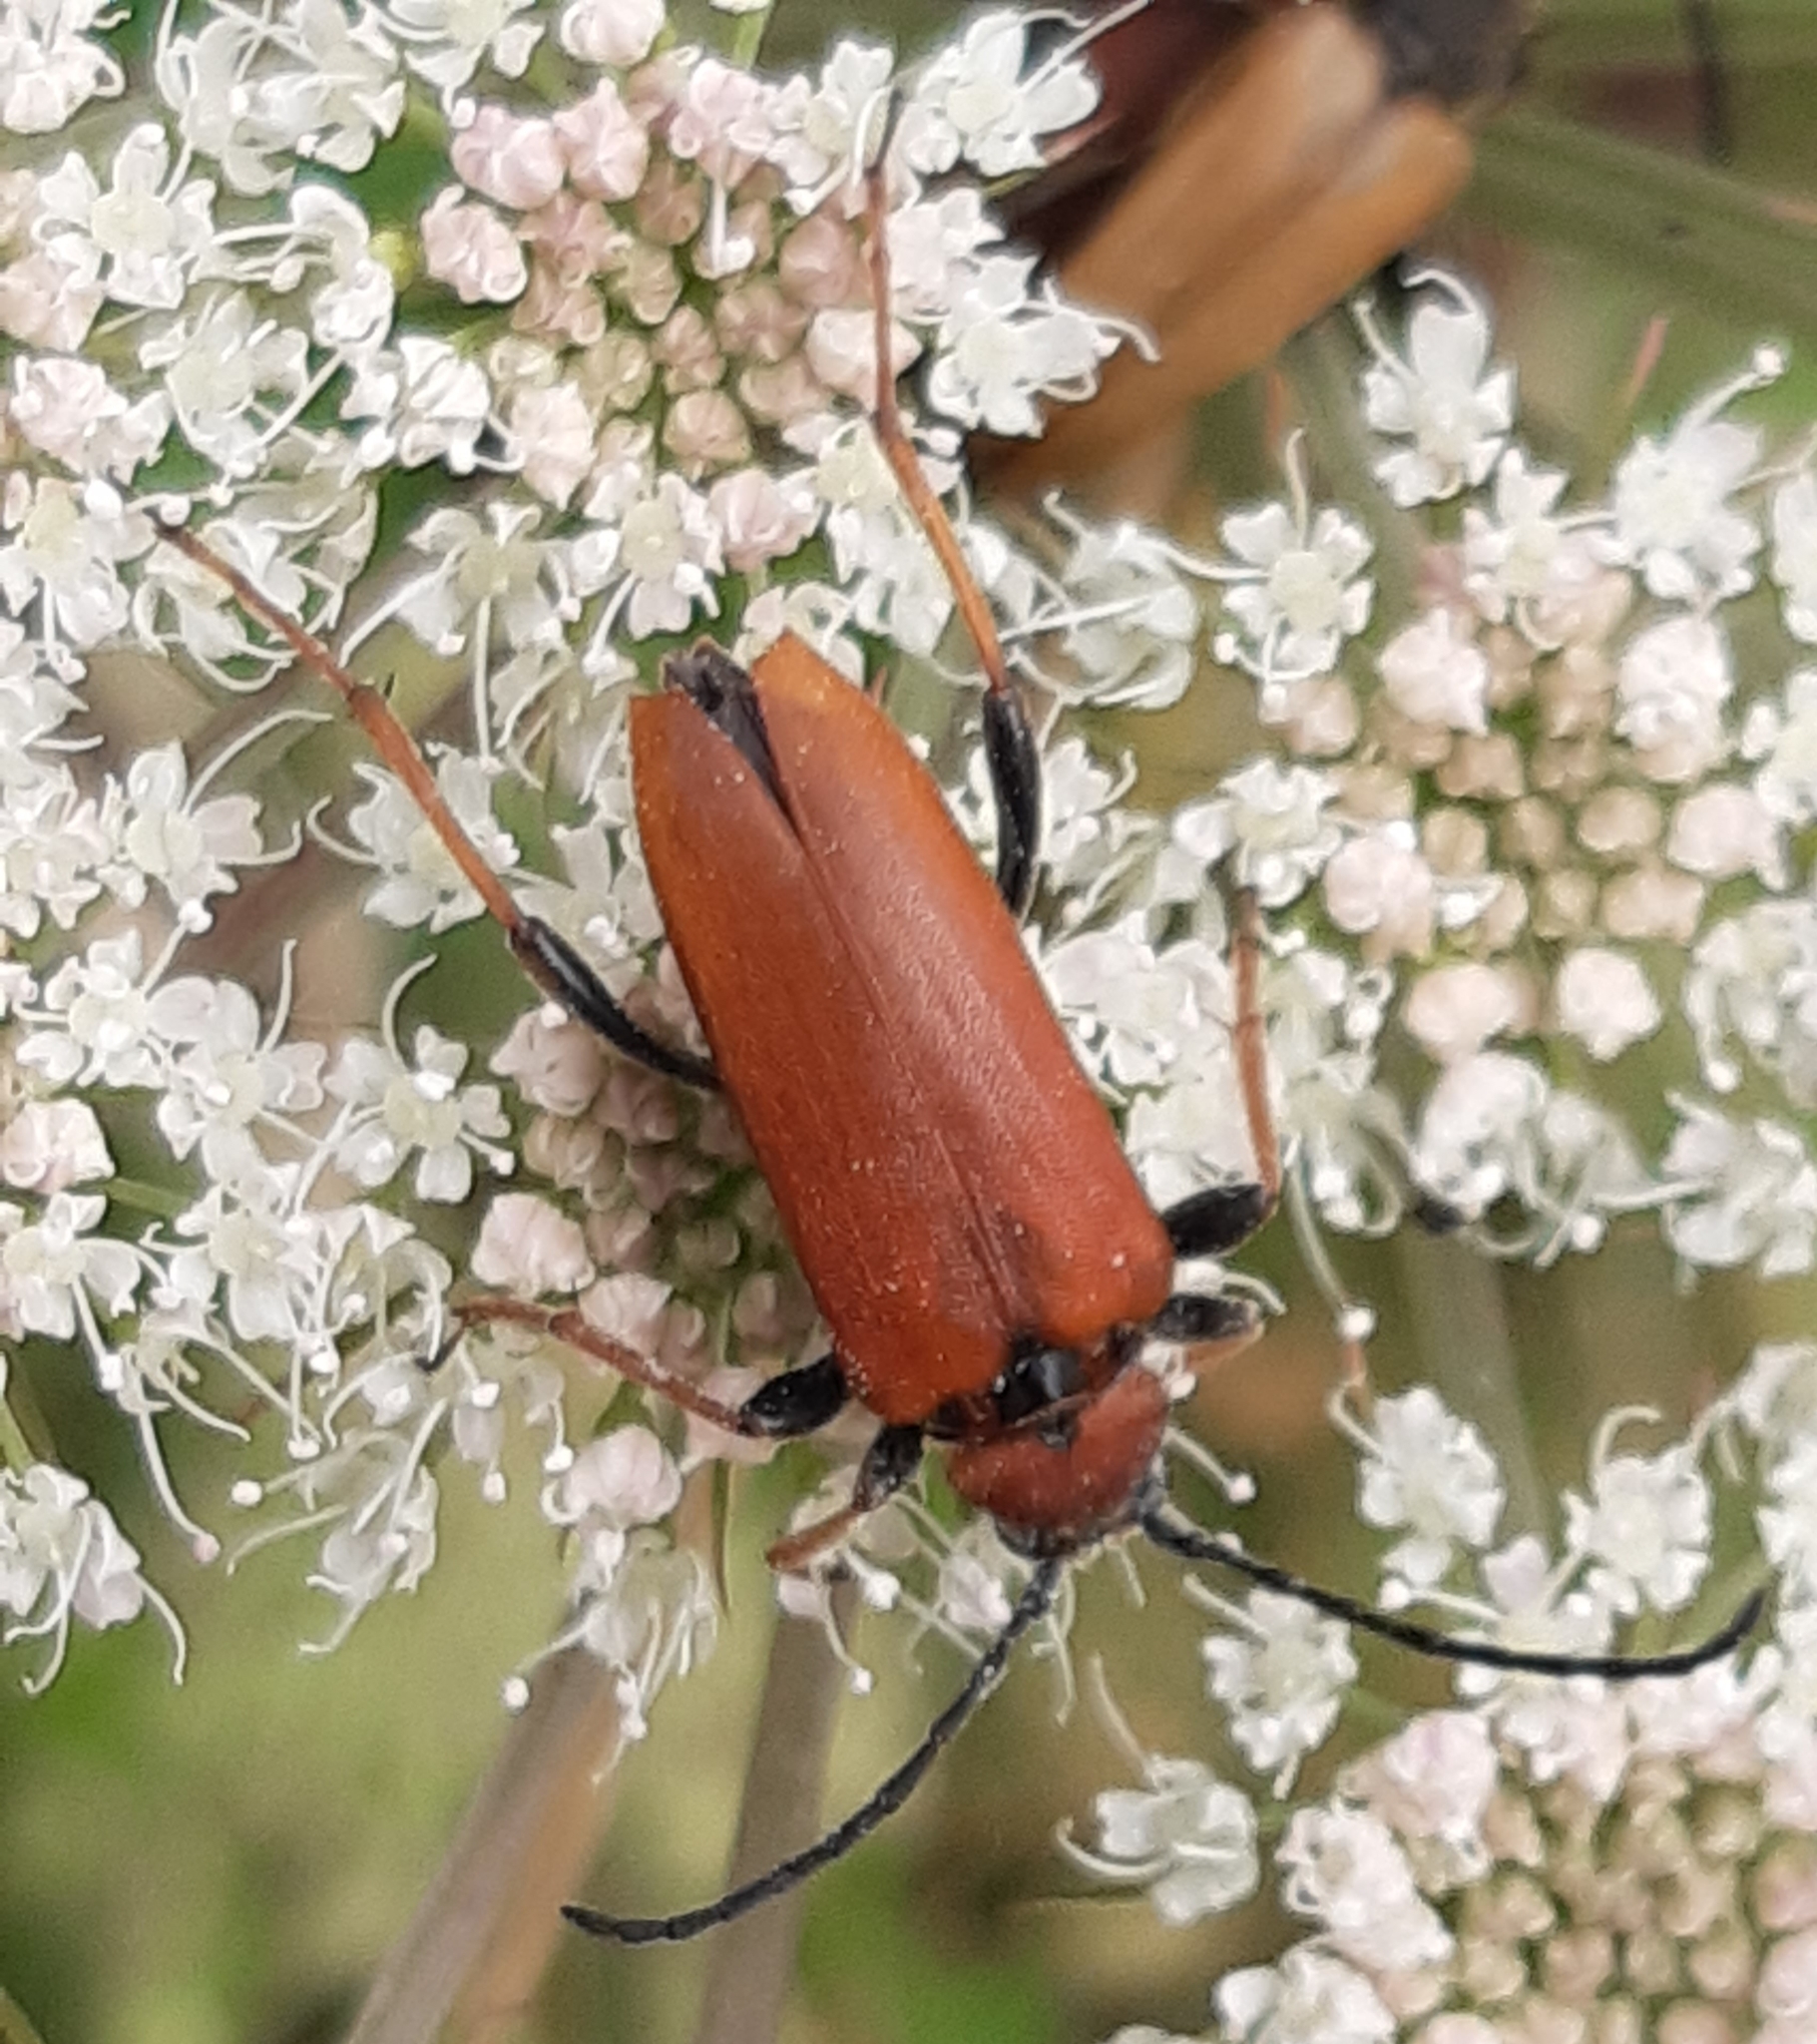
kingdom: Animalia
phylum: Arthropoda
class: Insecta
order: Coleoptera
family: Cerambycidae
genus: Stictoleptura
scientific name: Stictoleptura rubra
